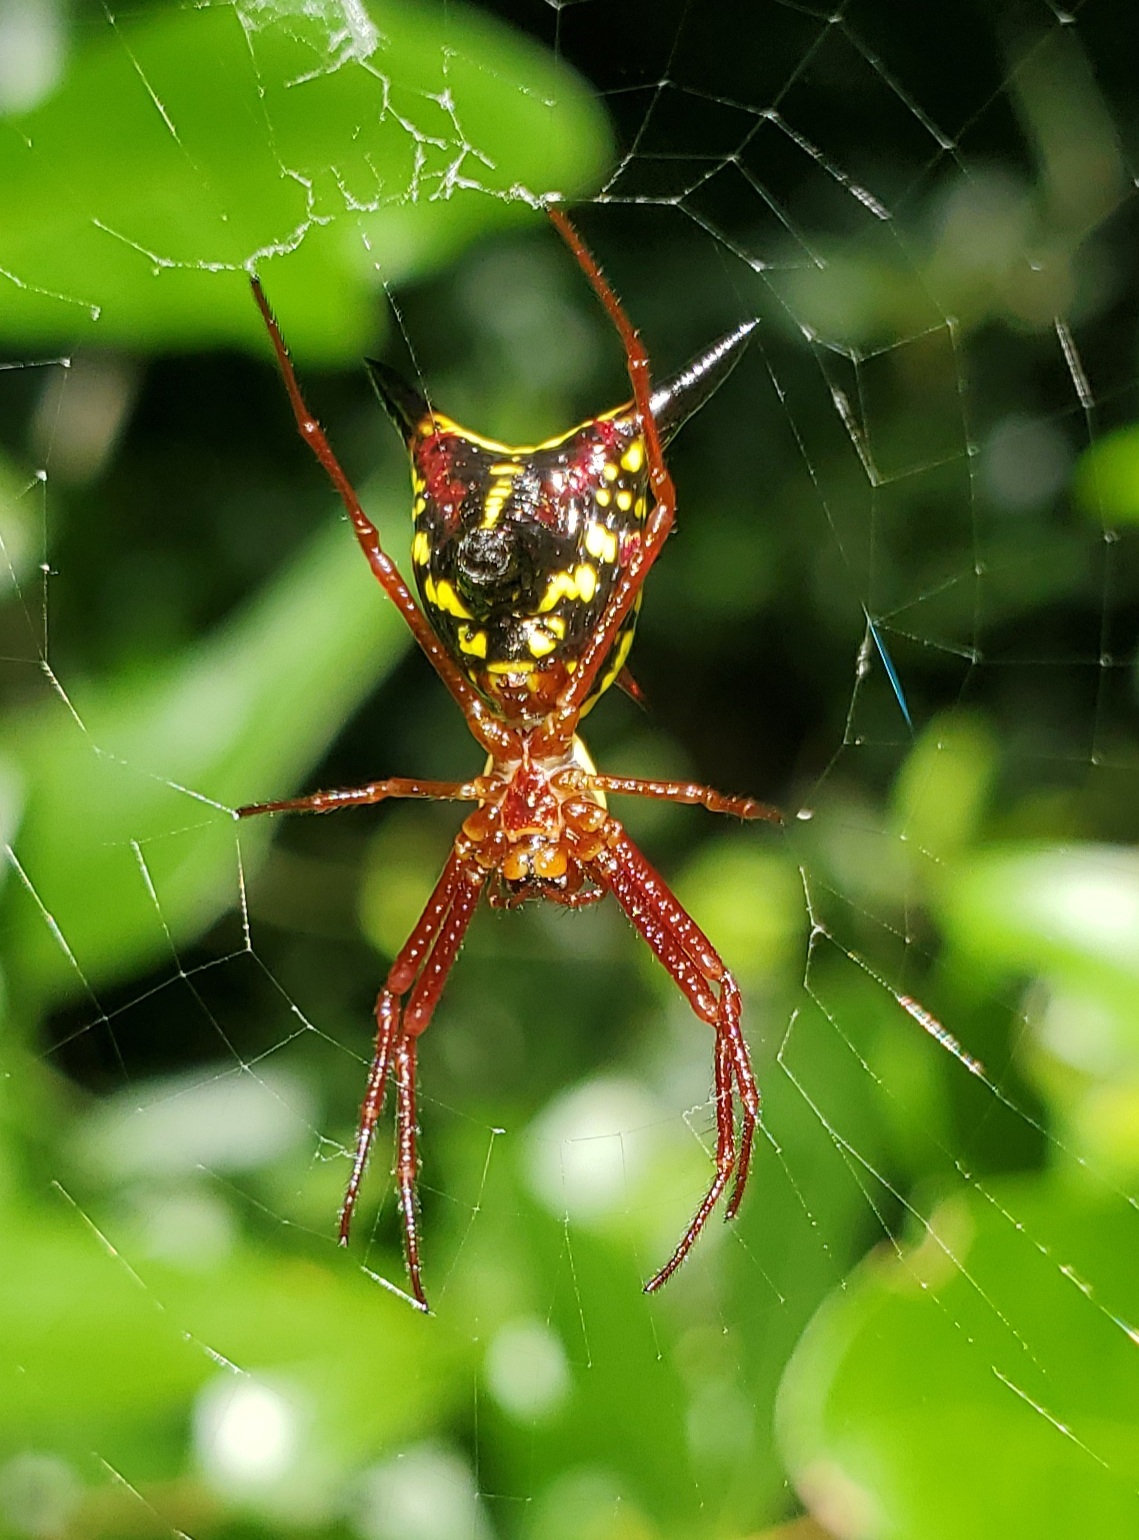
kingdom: Animalia
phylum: Arthropoda
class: Arachnida
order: Araneae
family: Araneidae
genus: Micrathena
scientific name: Micrathena sagittata
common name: Orb weavers
